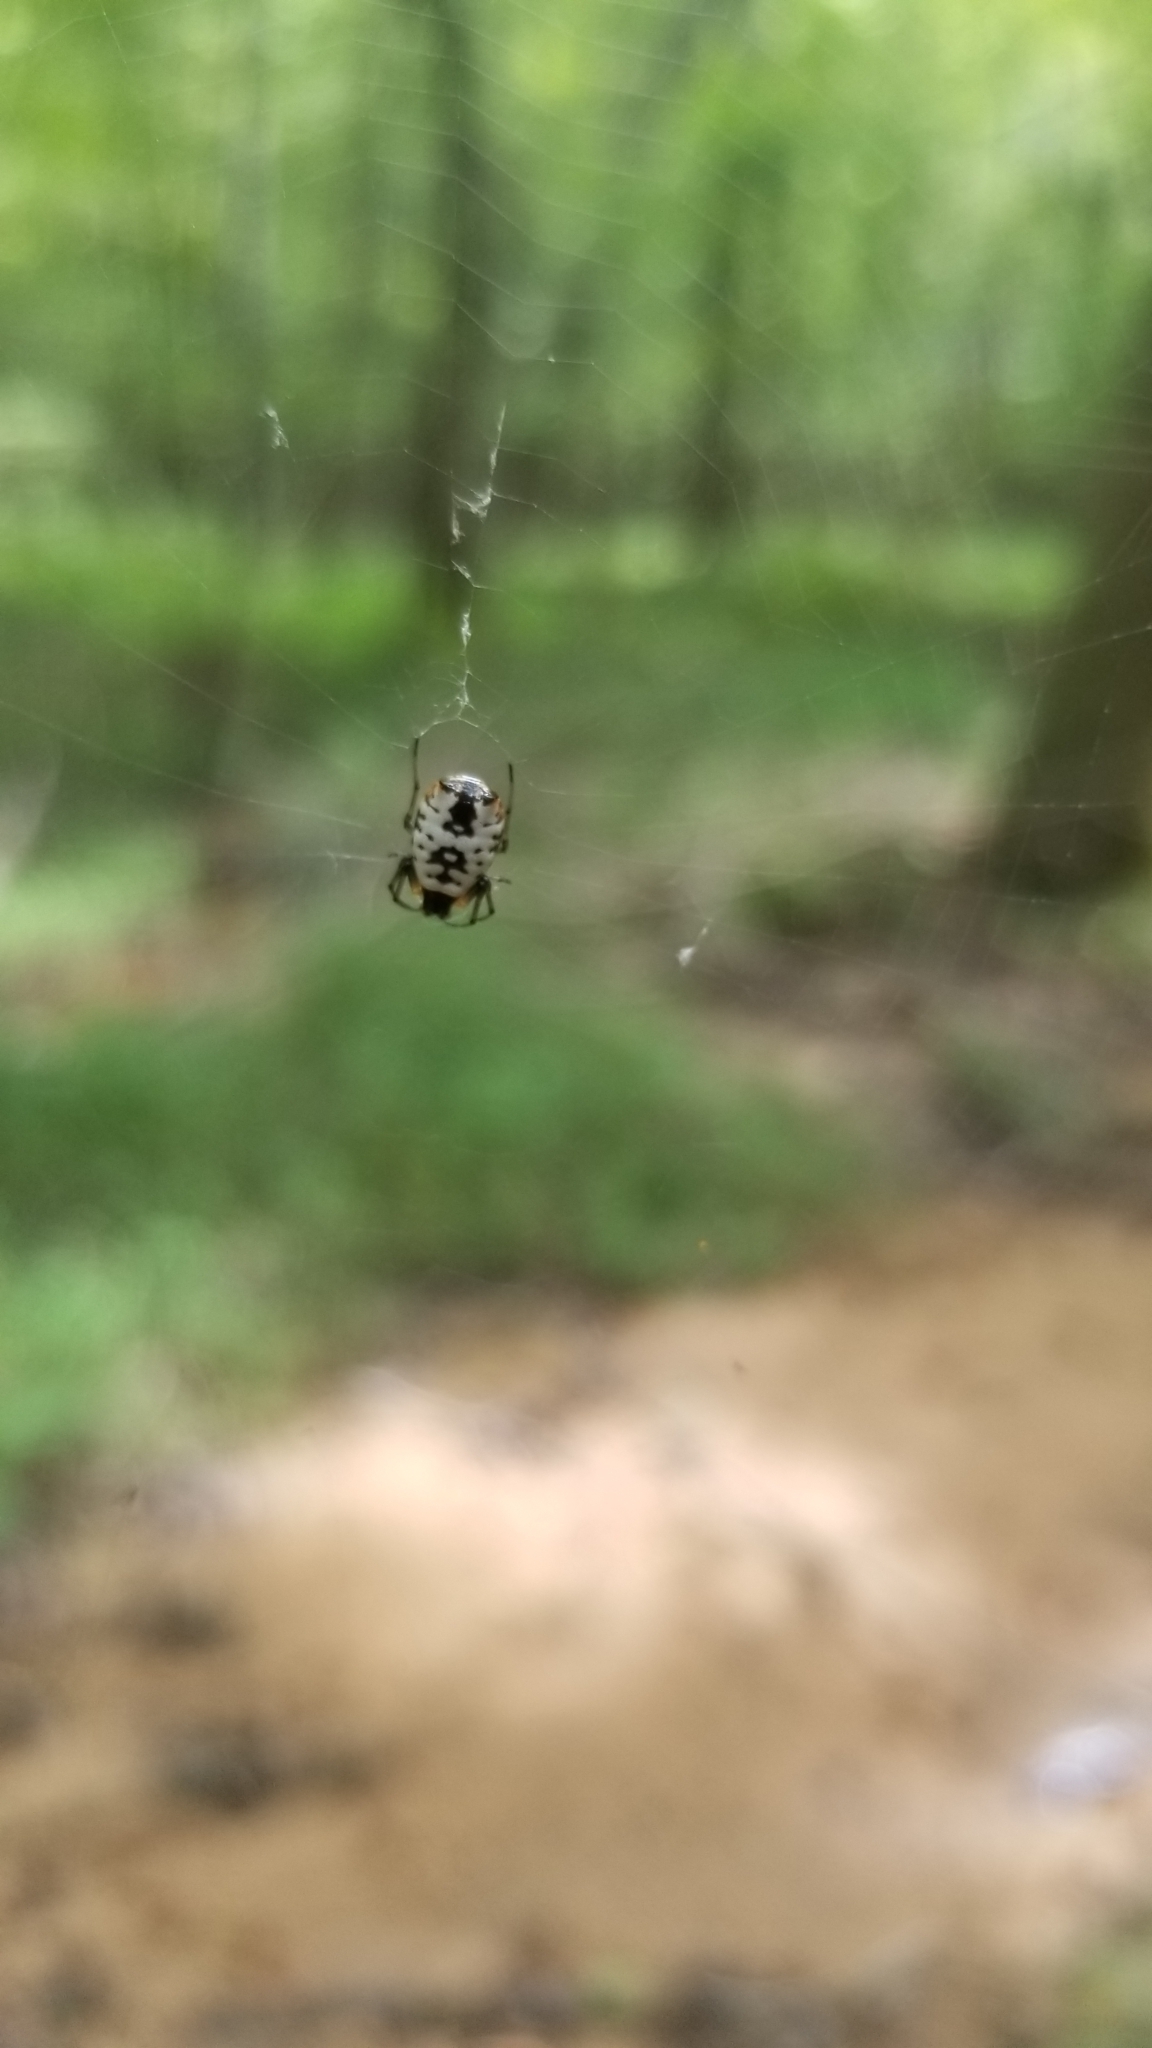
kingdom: Animalia
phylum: Arthropoda
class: Arachnida
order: Araneae
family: Araneidae
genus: Micrathena
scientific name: Micrathena mitrata
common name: Orb weavers
